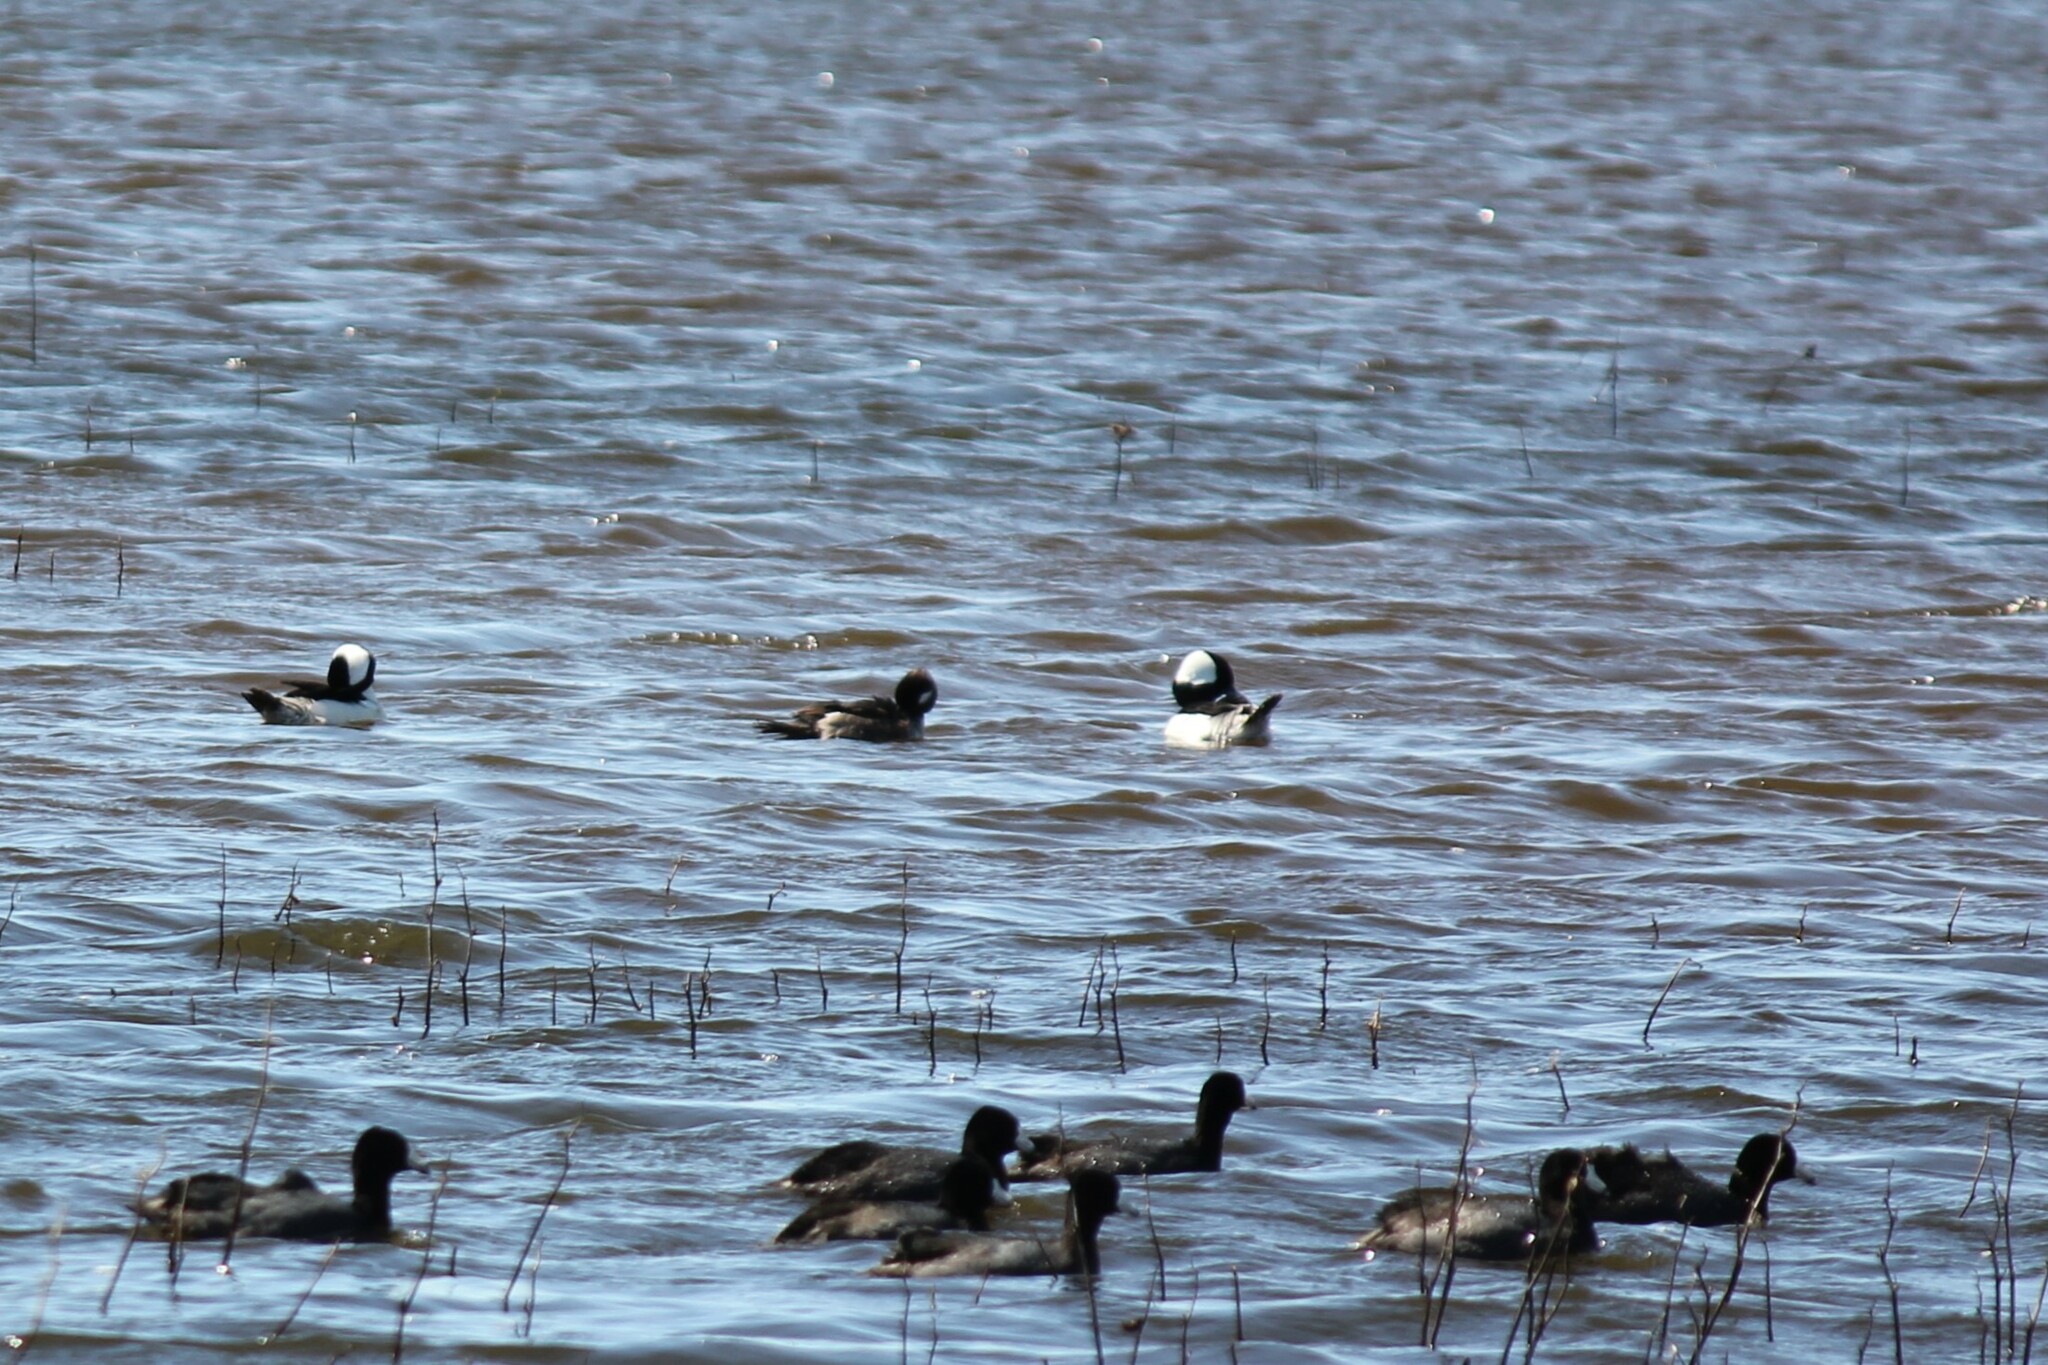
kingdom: Animalia
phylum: Chordata
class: Aves
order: Anseriformes
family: Anatidae
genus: Bucephala
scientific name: Bucephala albeola
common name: Bufflehead
